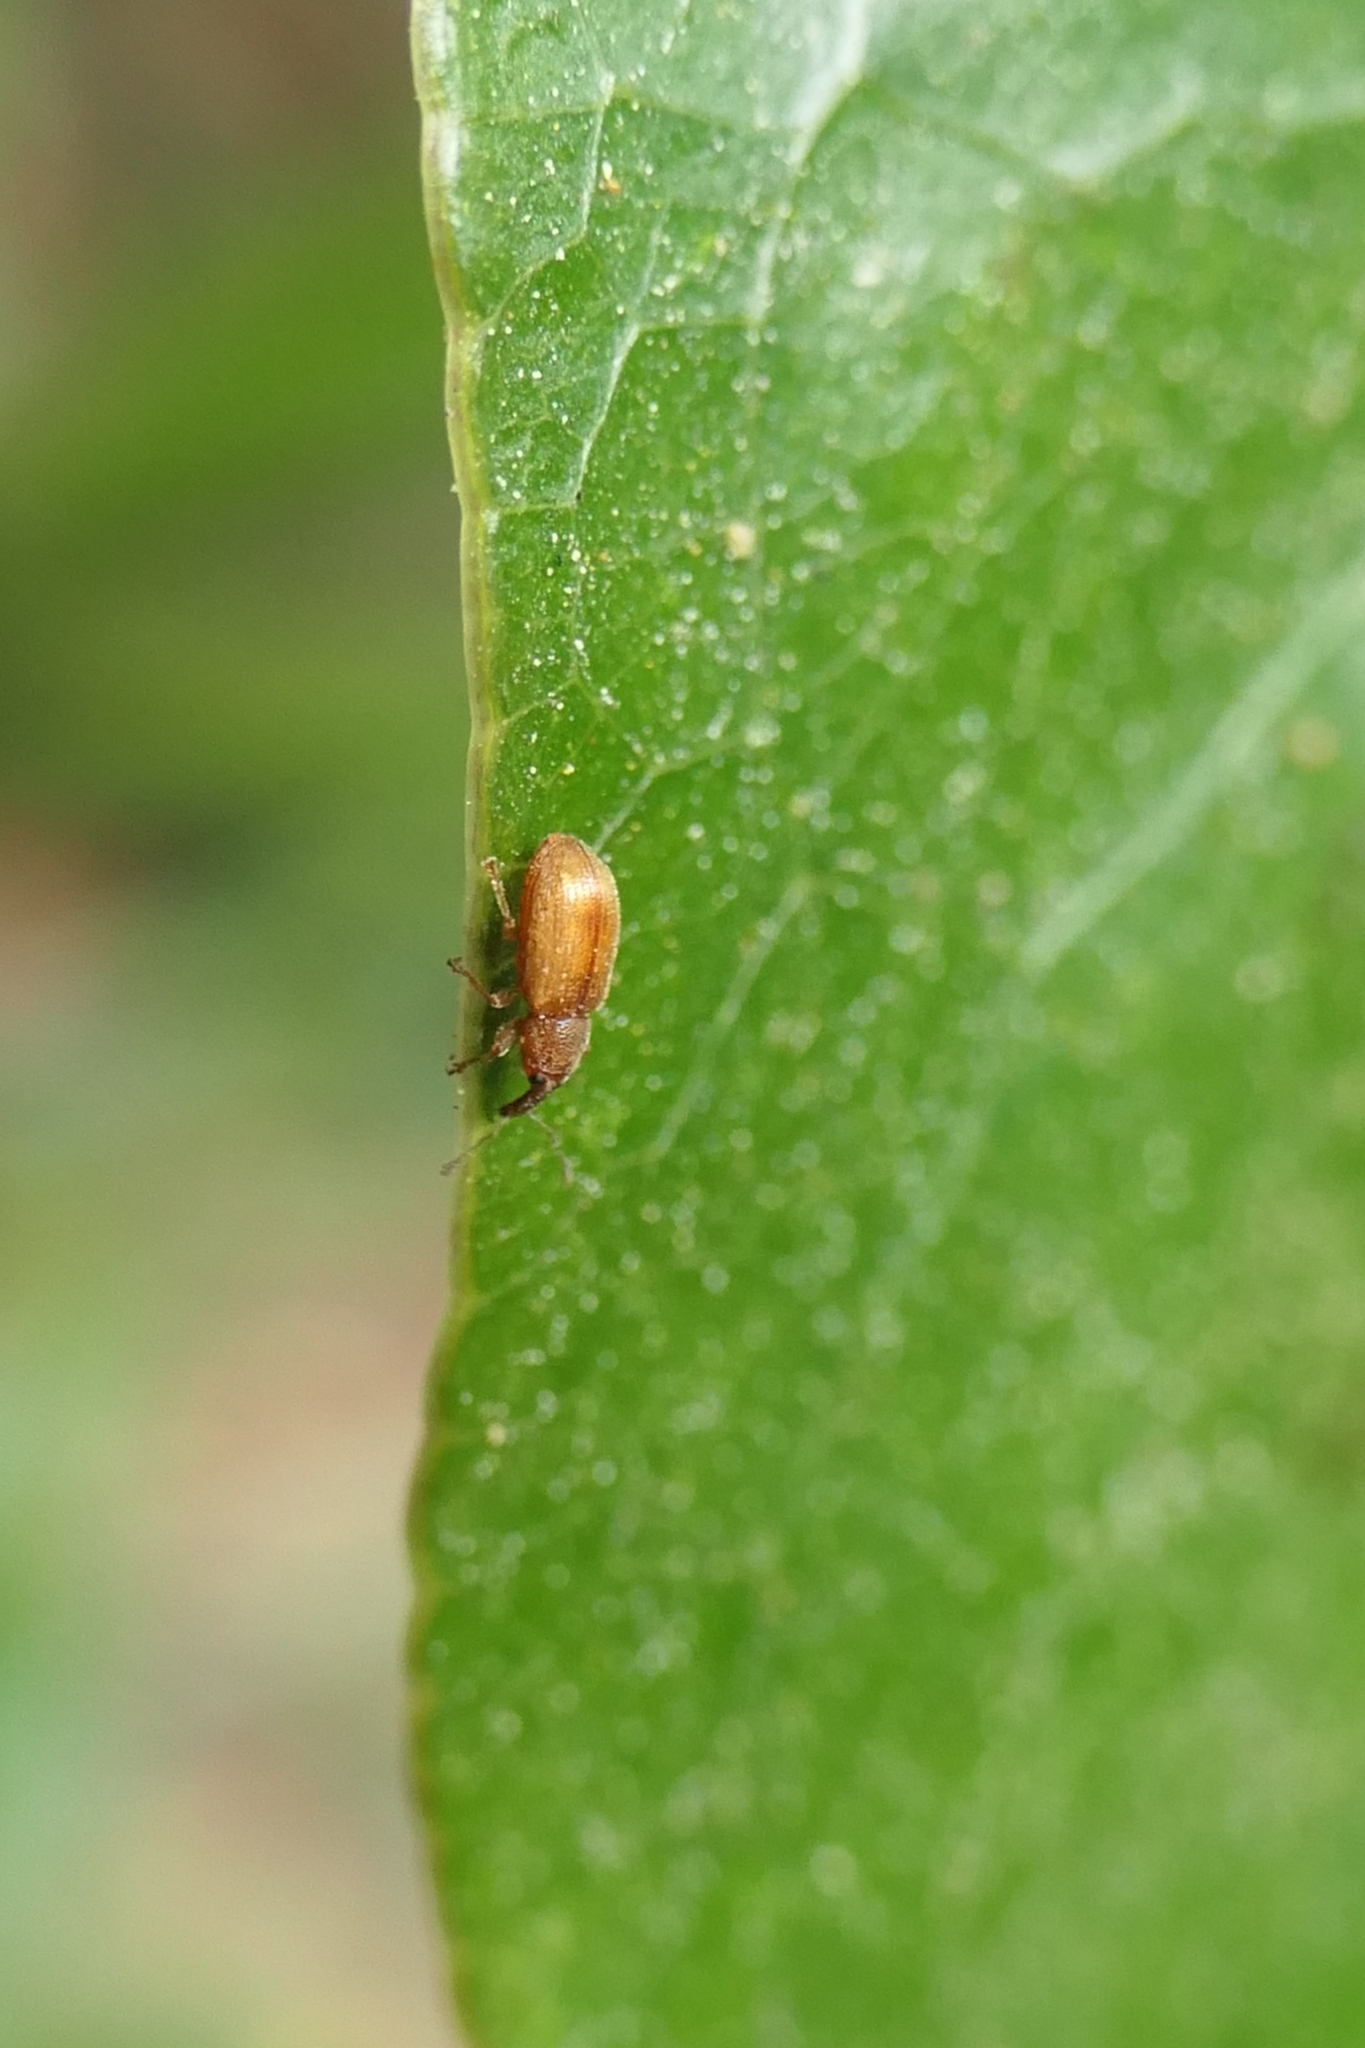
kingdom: Animalia
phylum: Arthropoda
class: Insecta
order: Coleoptera
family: Curculionidae
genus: Neomycta
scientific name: Neomycta pulicaris
